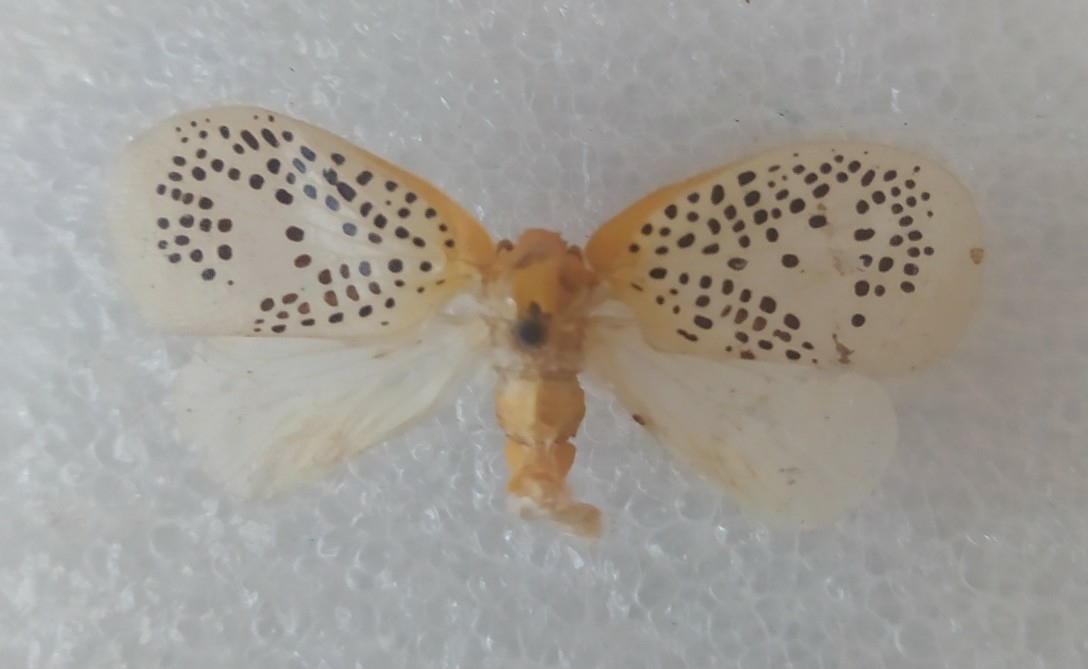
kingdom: Animalia
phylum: Arthropoda
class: Insecta
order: Hemiptera
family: Flatidae
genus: Poekilloptera
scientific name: Poekilloptera phalaenoides
